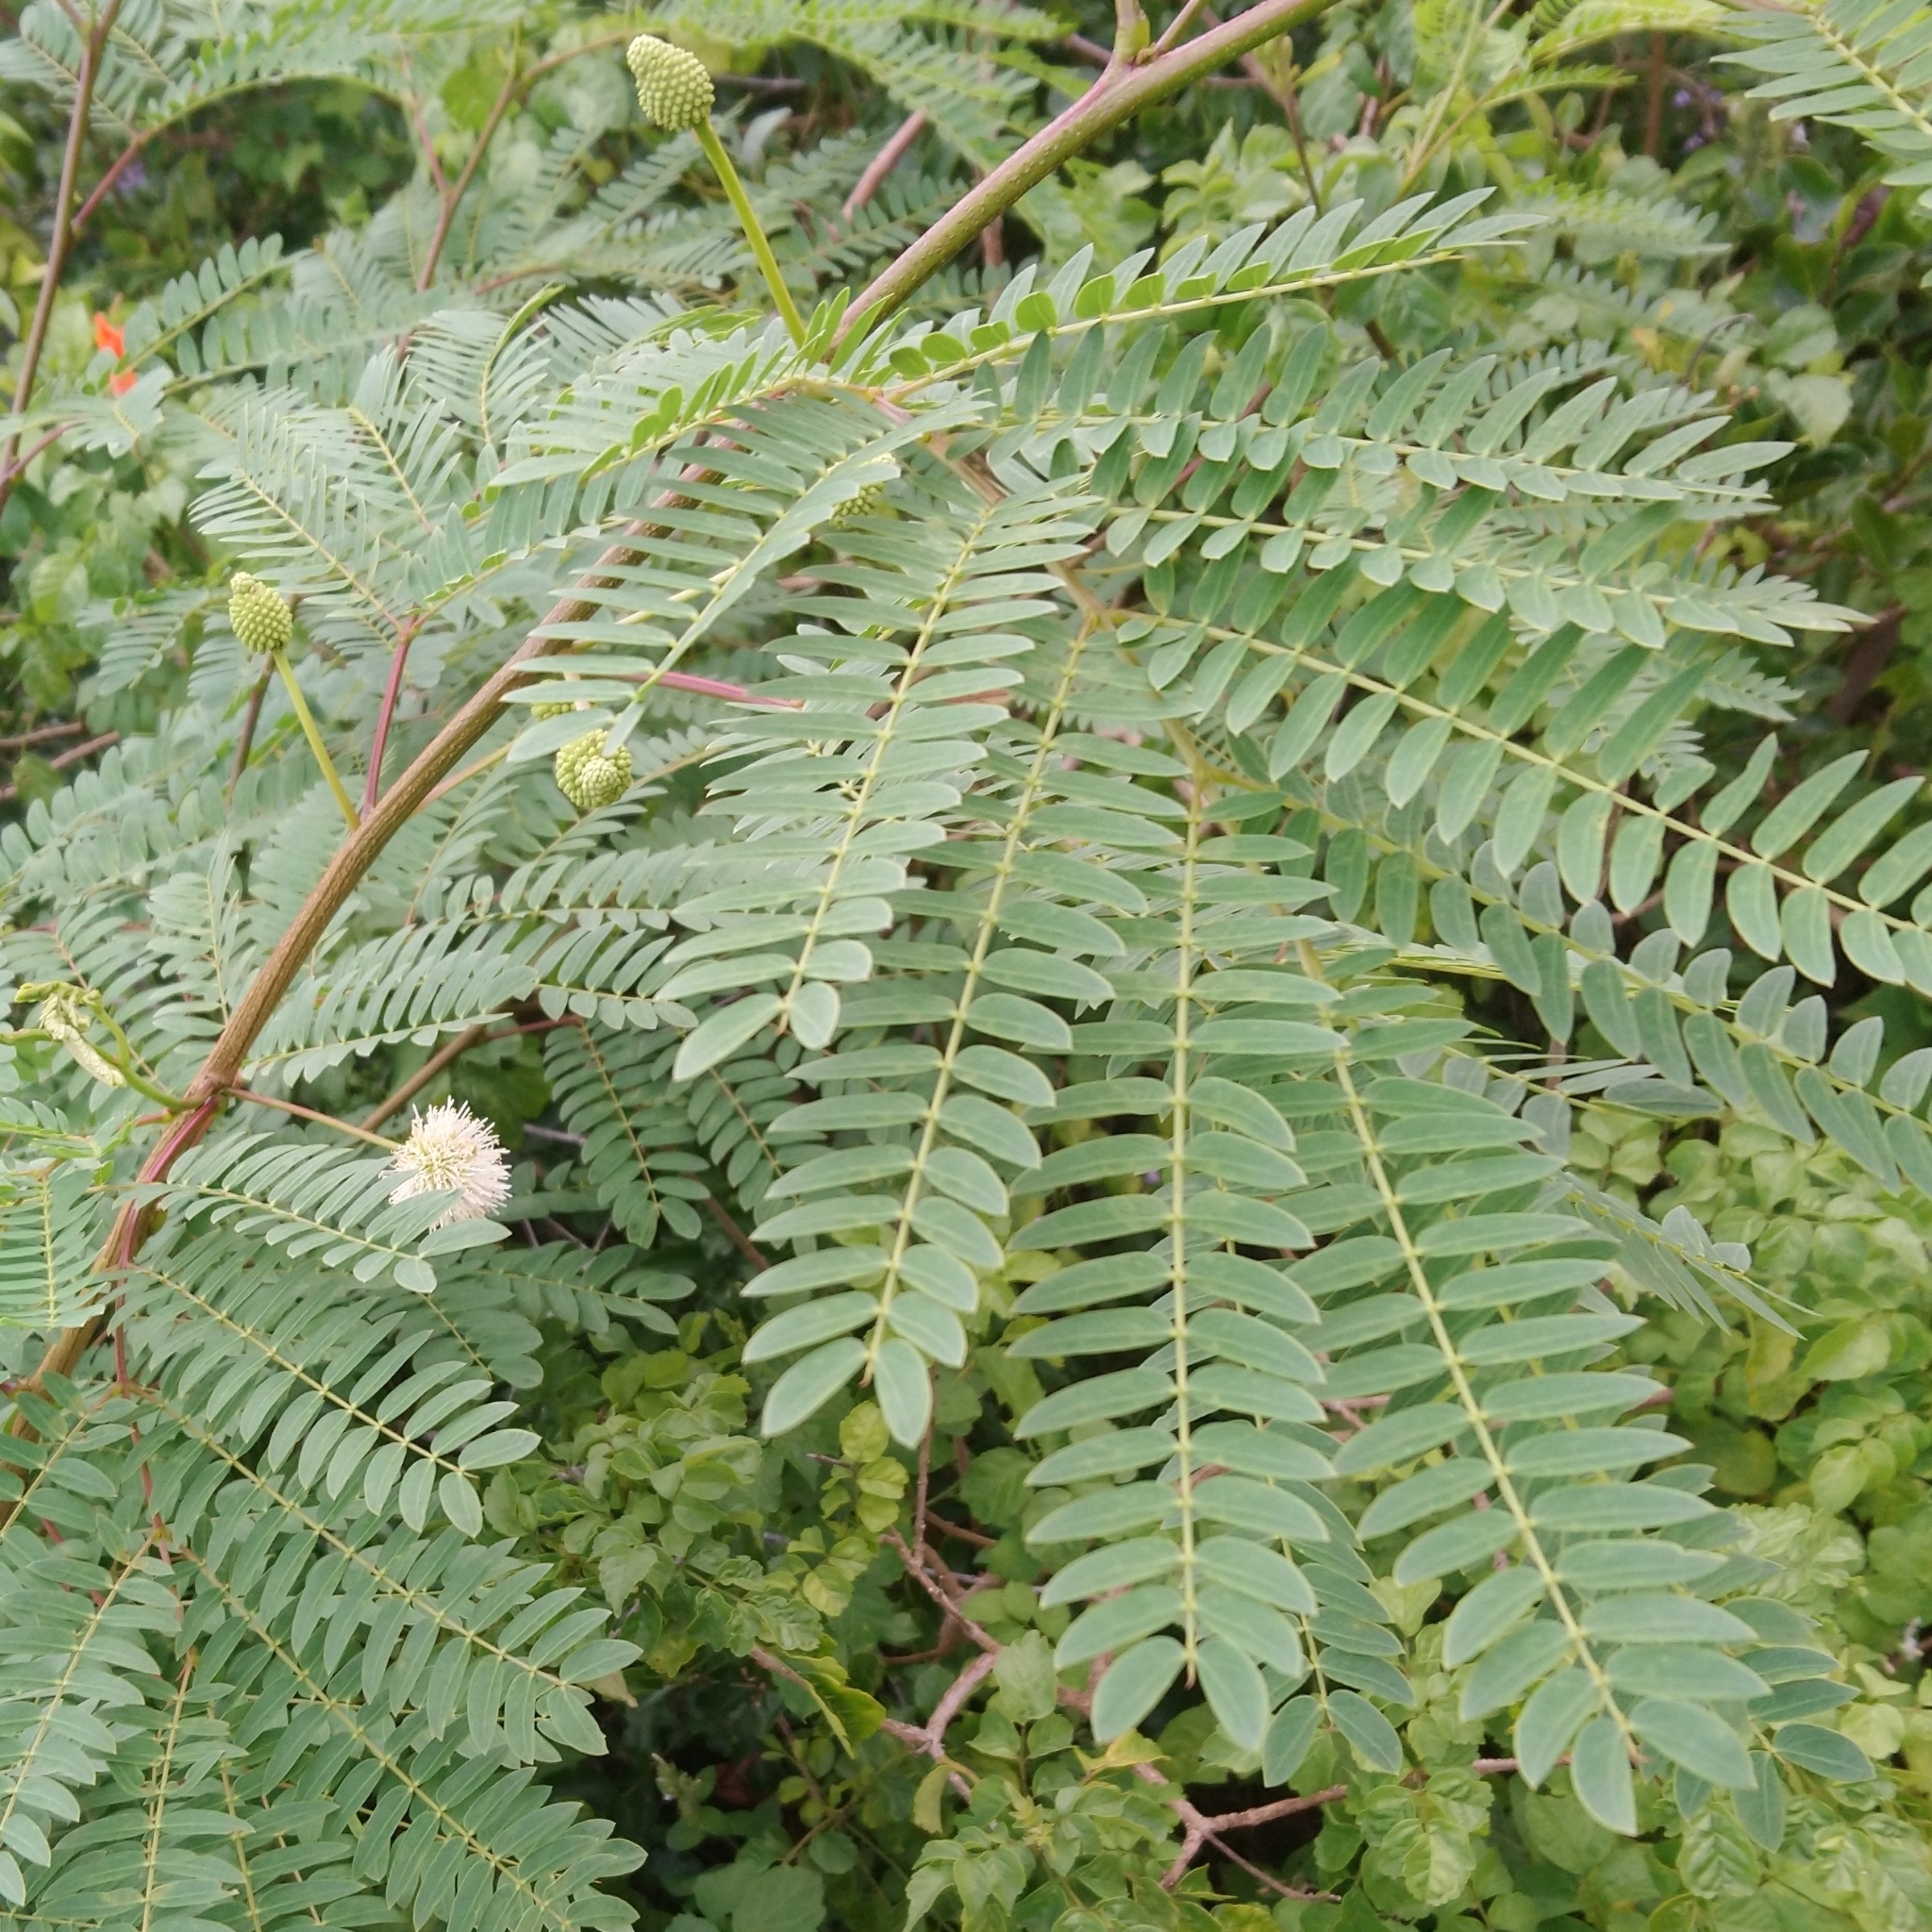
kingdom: Plantae
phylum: Tracheophyta
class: Magnoliopsida
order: Fabales
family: Fabaceae
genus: Leucaena
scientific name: Leucaena leucocephala
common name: White leadtree
